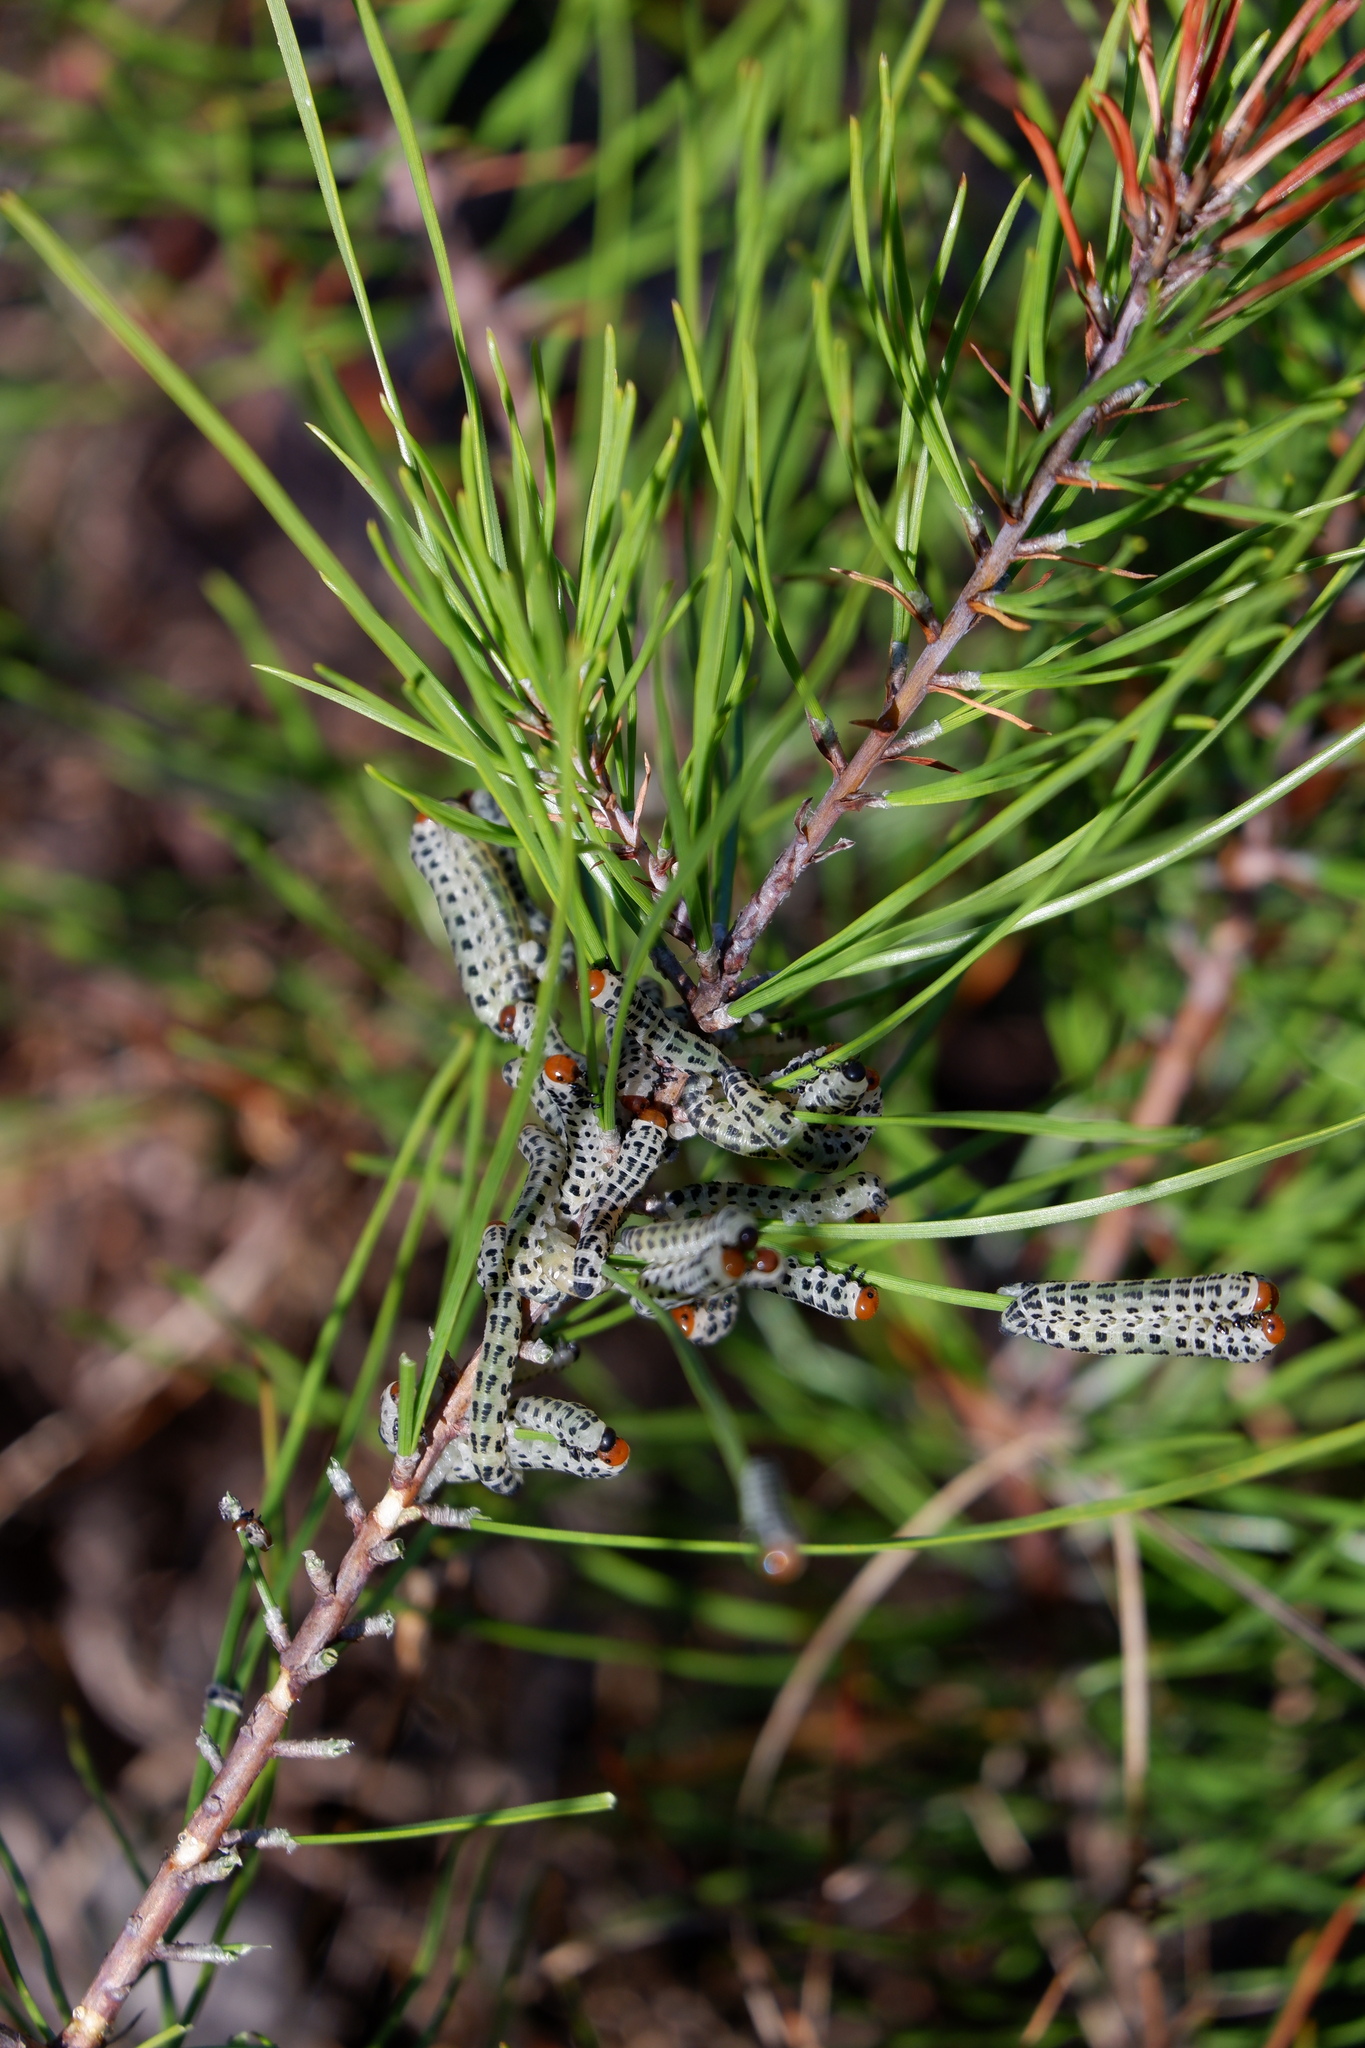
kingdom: Animalia
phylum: Arthropoda
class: Insecta
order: Hymenoptera
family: Diprionidae
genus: Neodiprion
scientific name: Neodiprion lecontei
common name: Redheaded pine sawfly
